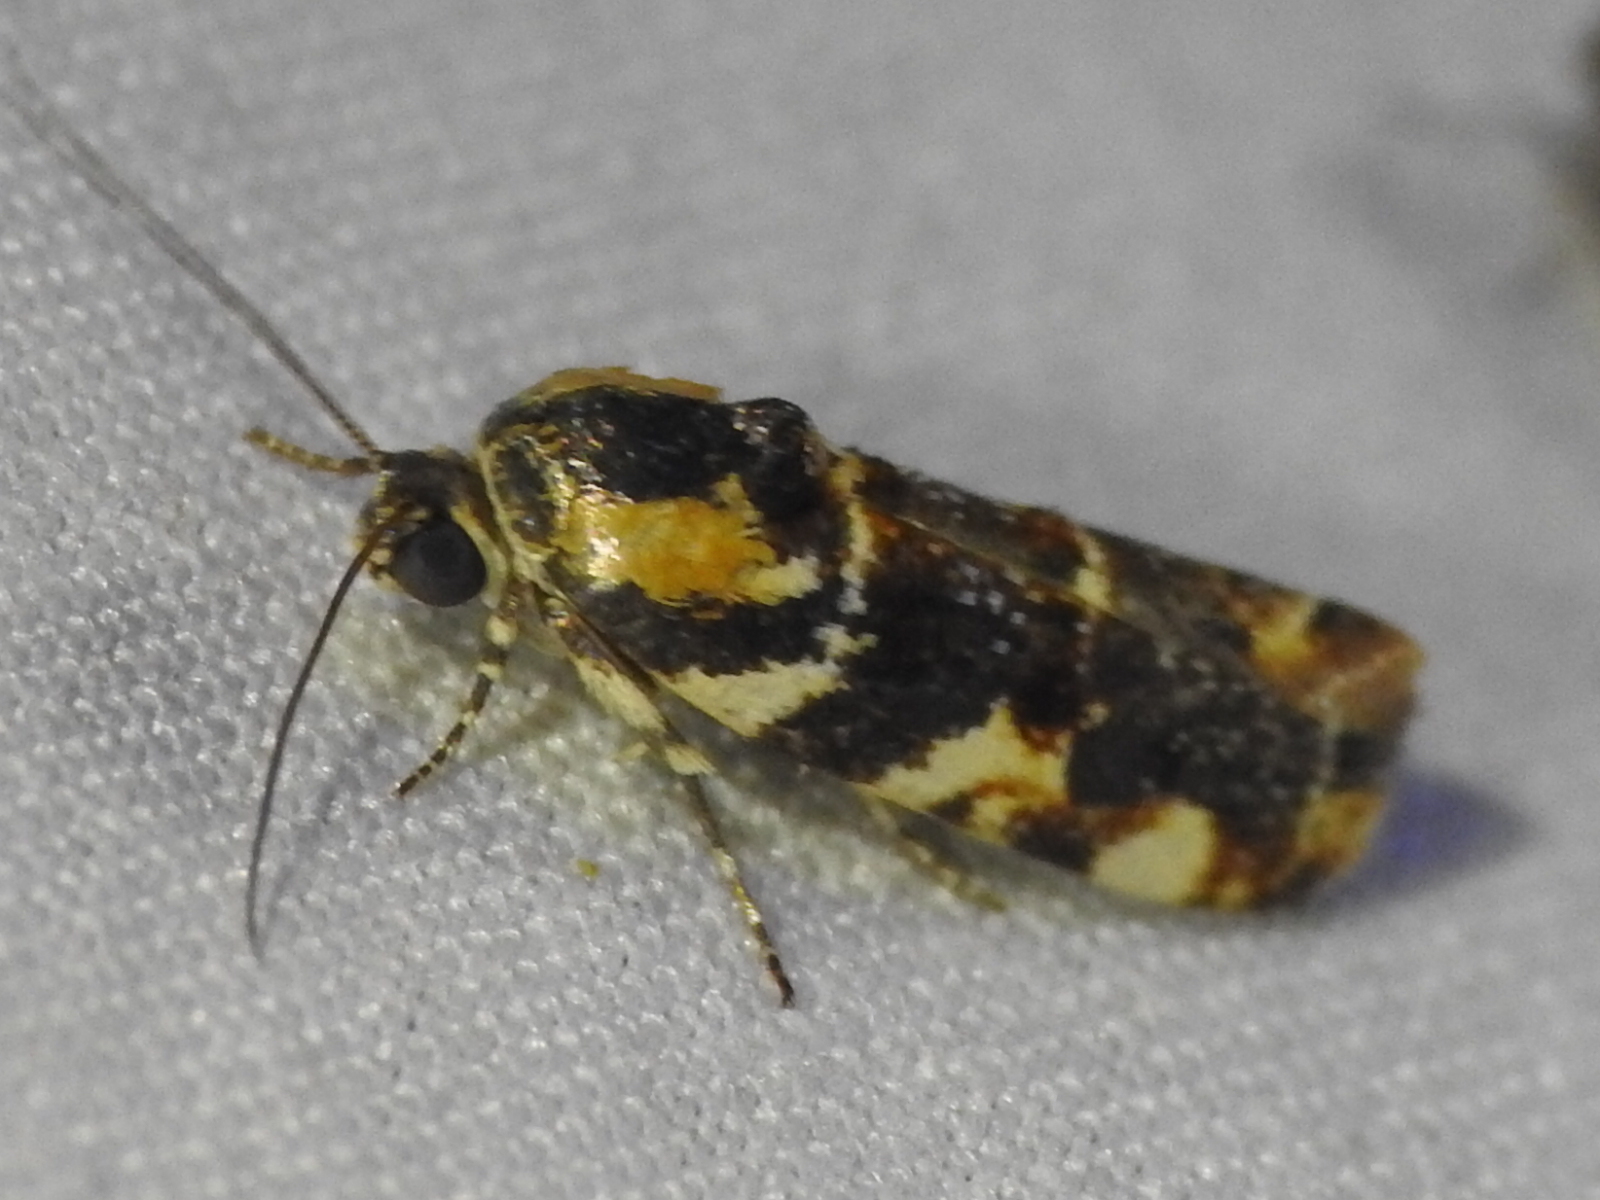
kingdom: Animalia
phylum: Arthropoda
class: Insecta
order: Lepidoptera
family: Noctuidae
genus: Spragueia
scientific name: Spragueia jaguaralis
